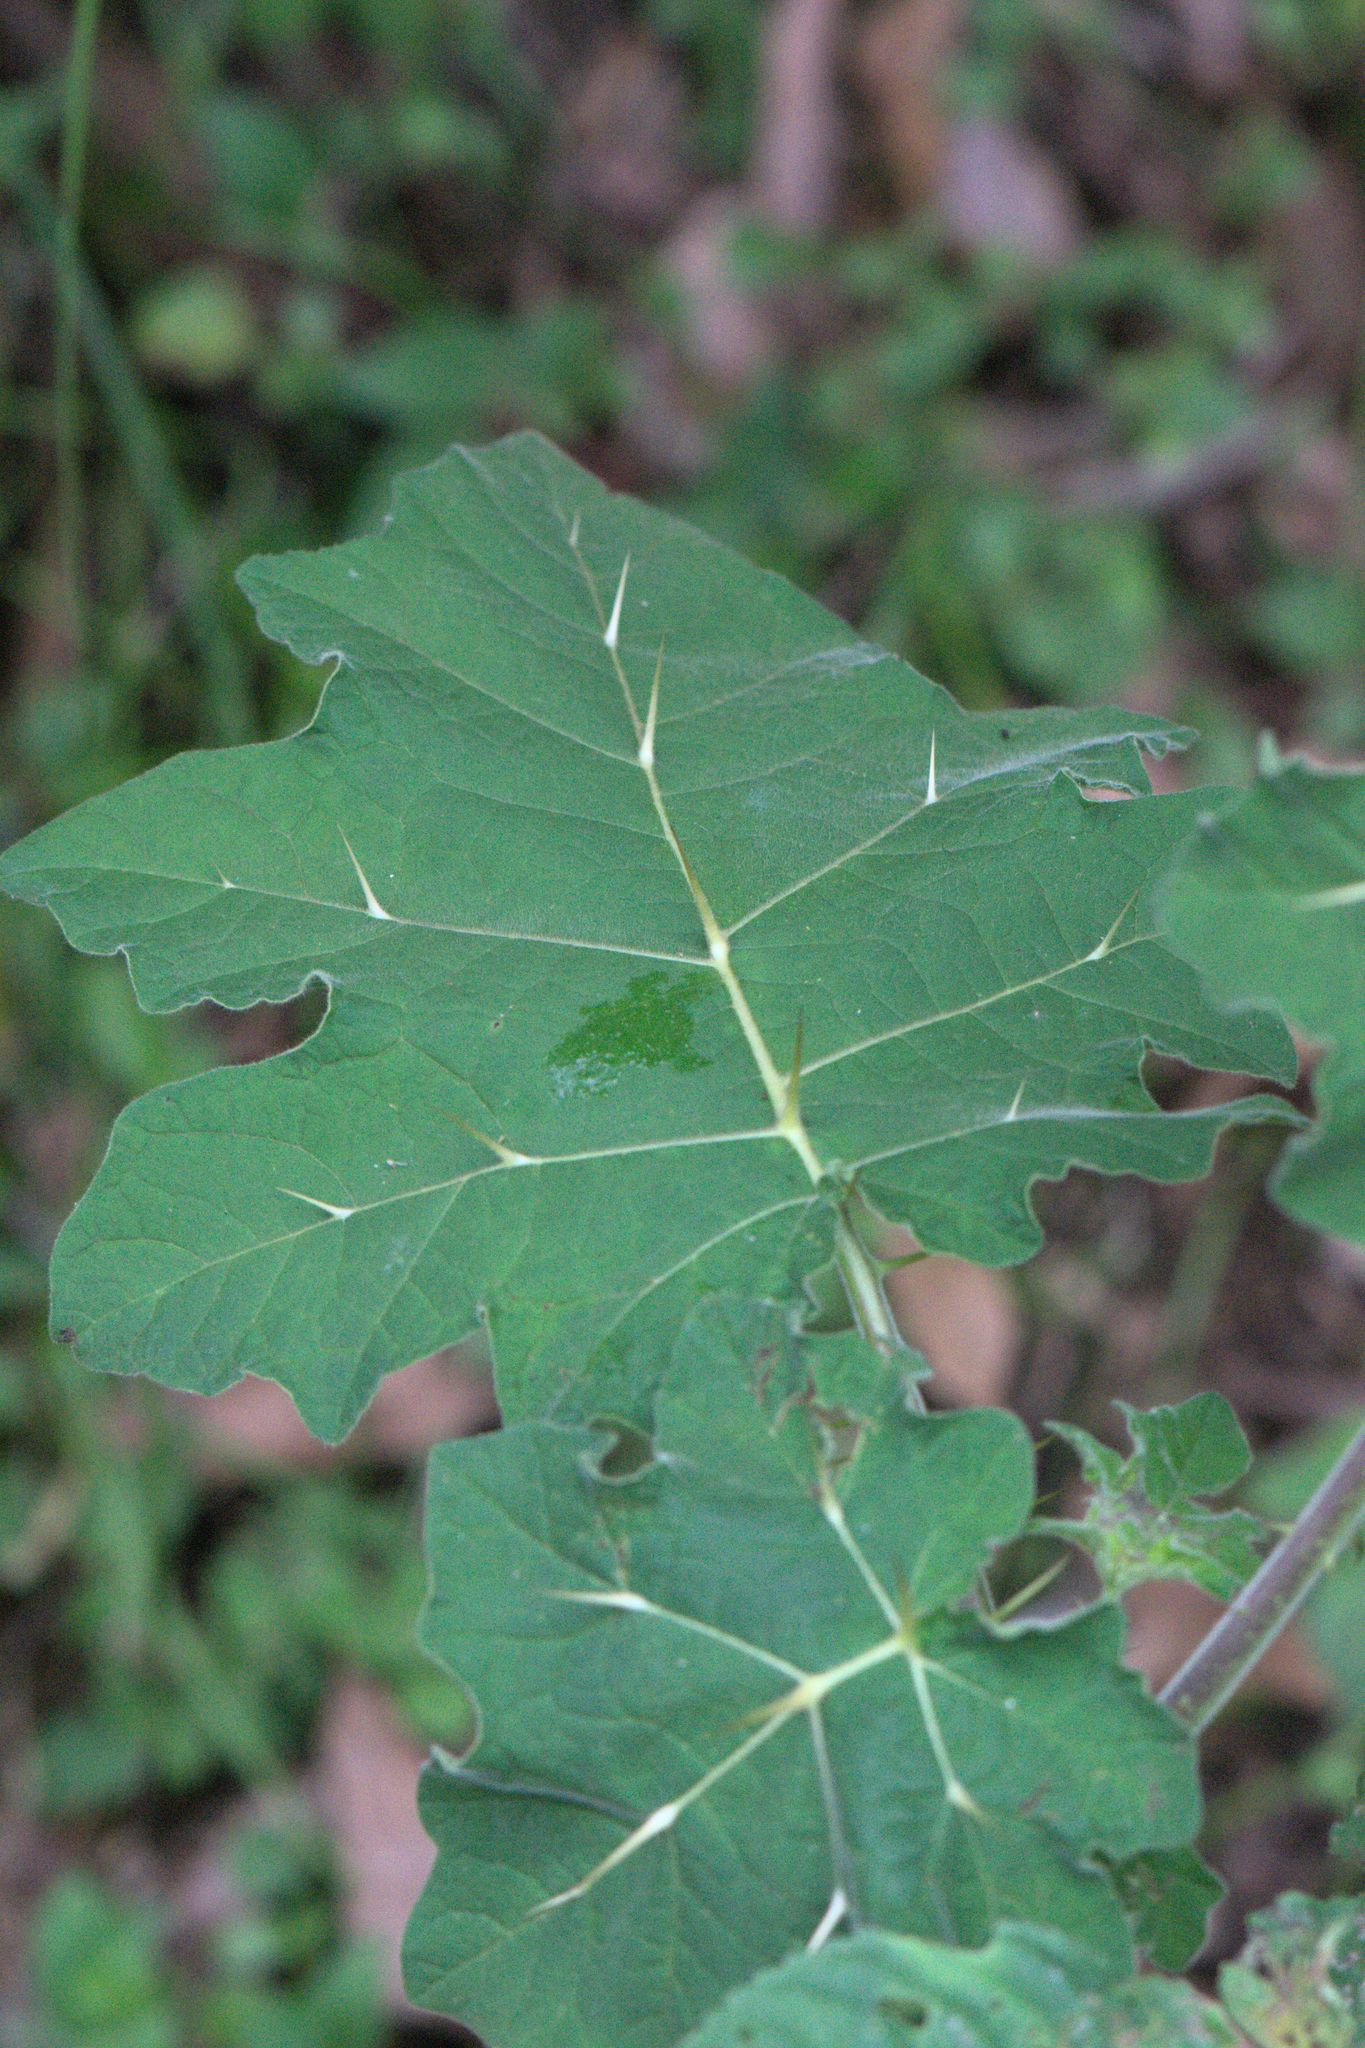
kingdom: Plantae
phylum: Tracheophyta
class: Magnoliopsida
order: Solanales
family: Solanaceae
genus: Solanum
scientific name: Solanum viarum
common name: Tropical soda apple
